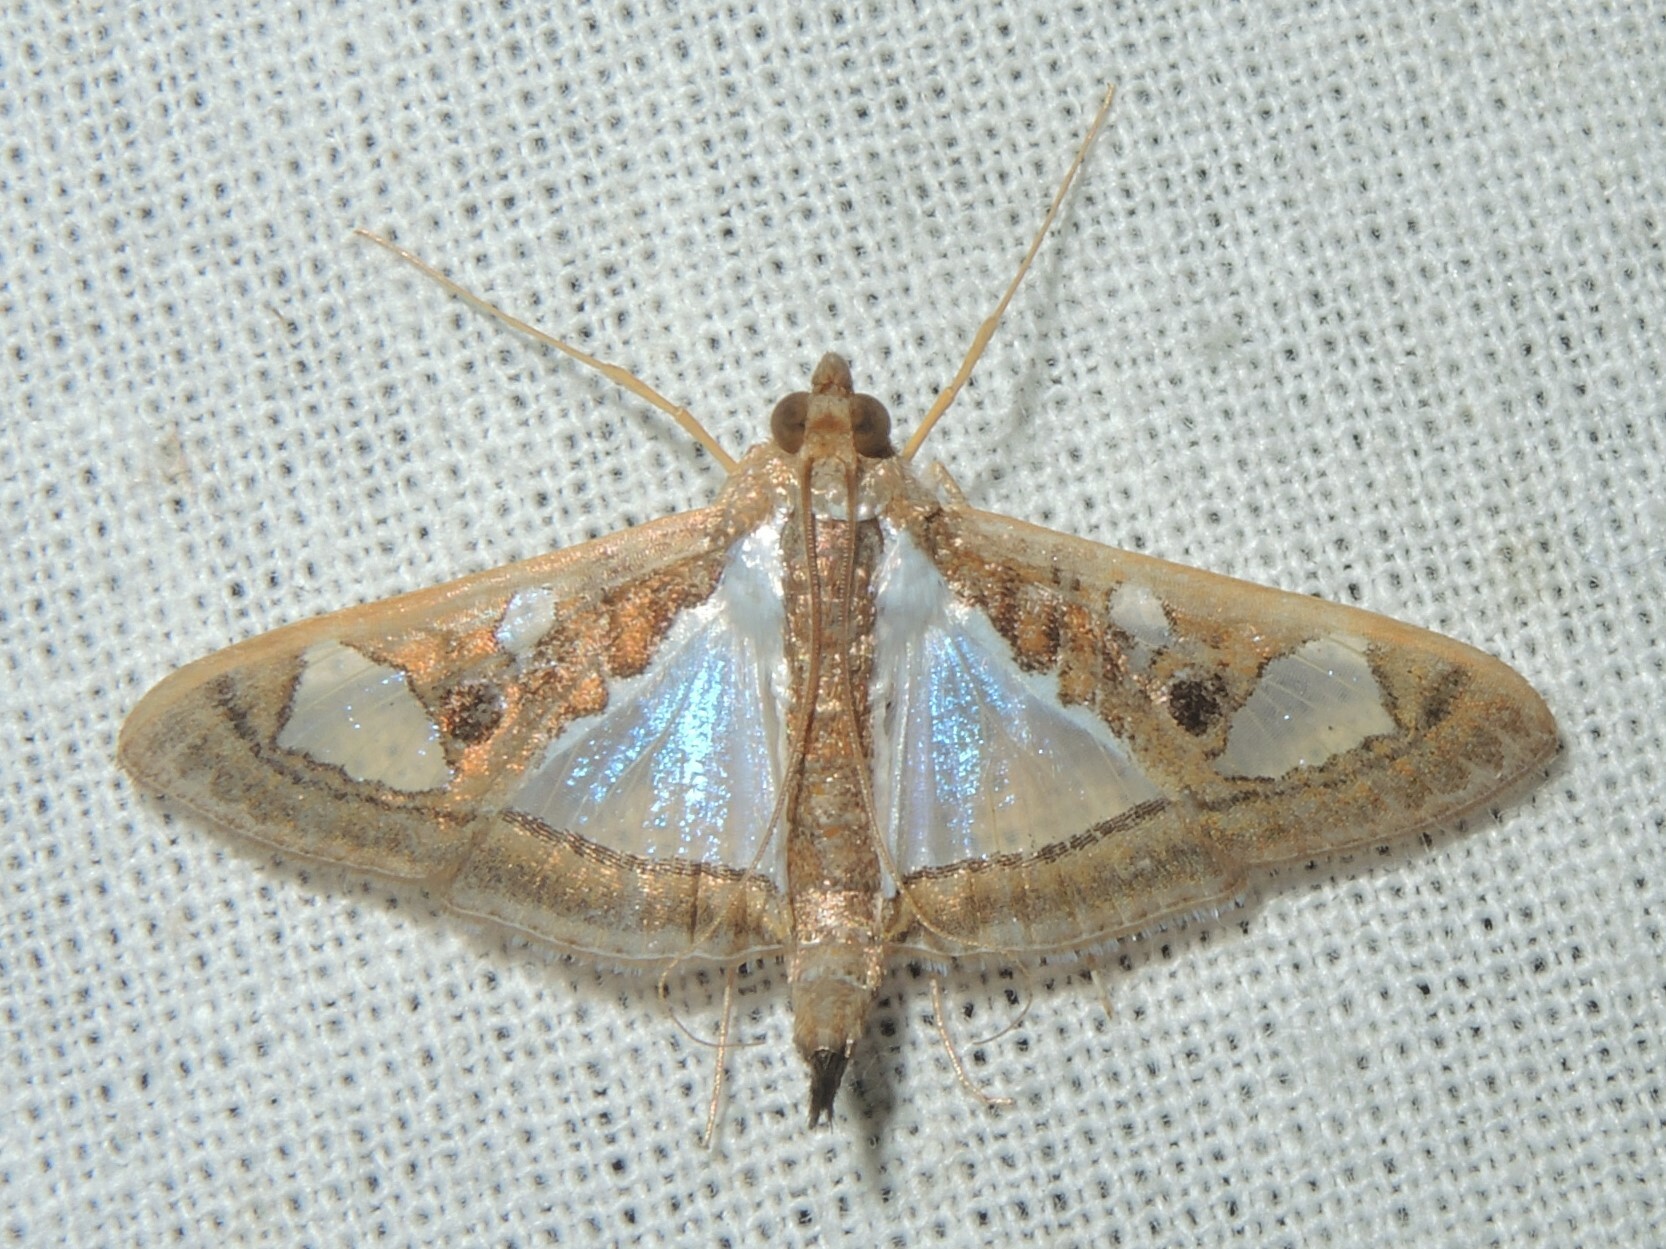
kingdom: Animalia
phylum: Arthropoda
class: Insecta
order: Lepidoptera
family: Crambidae
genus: Glyphodes
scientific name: Glyphodes bivitralis
